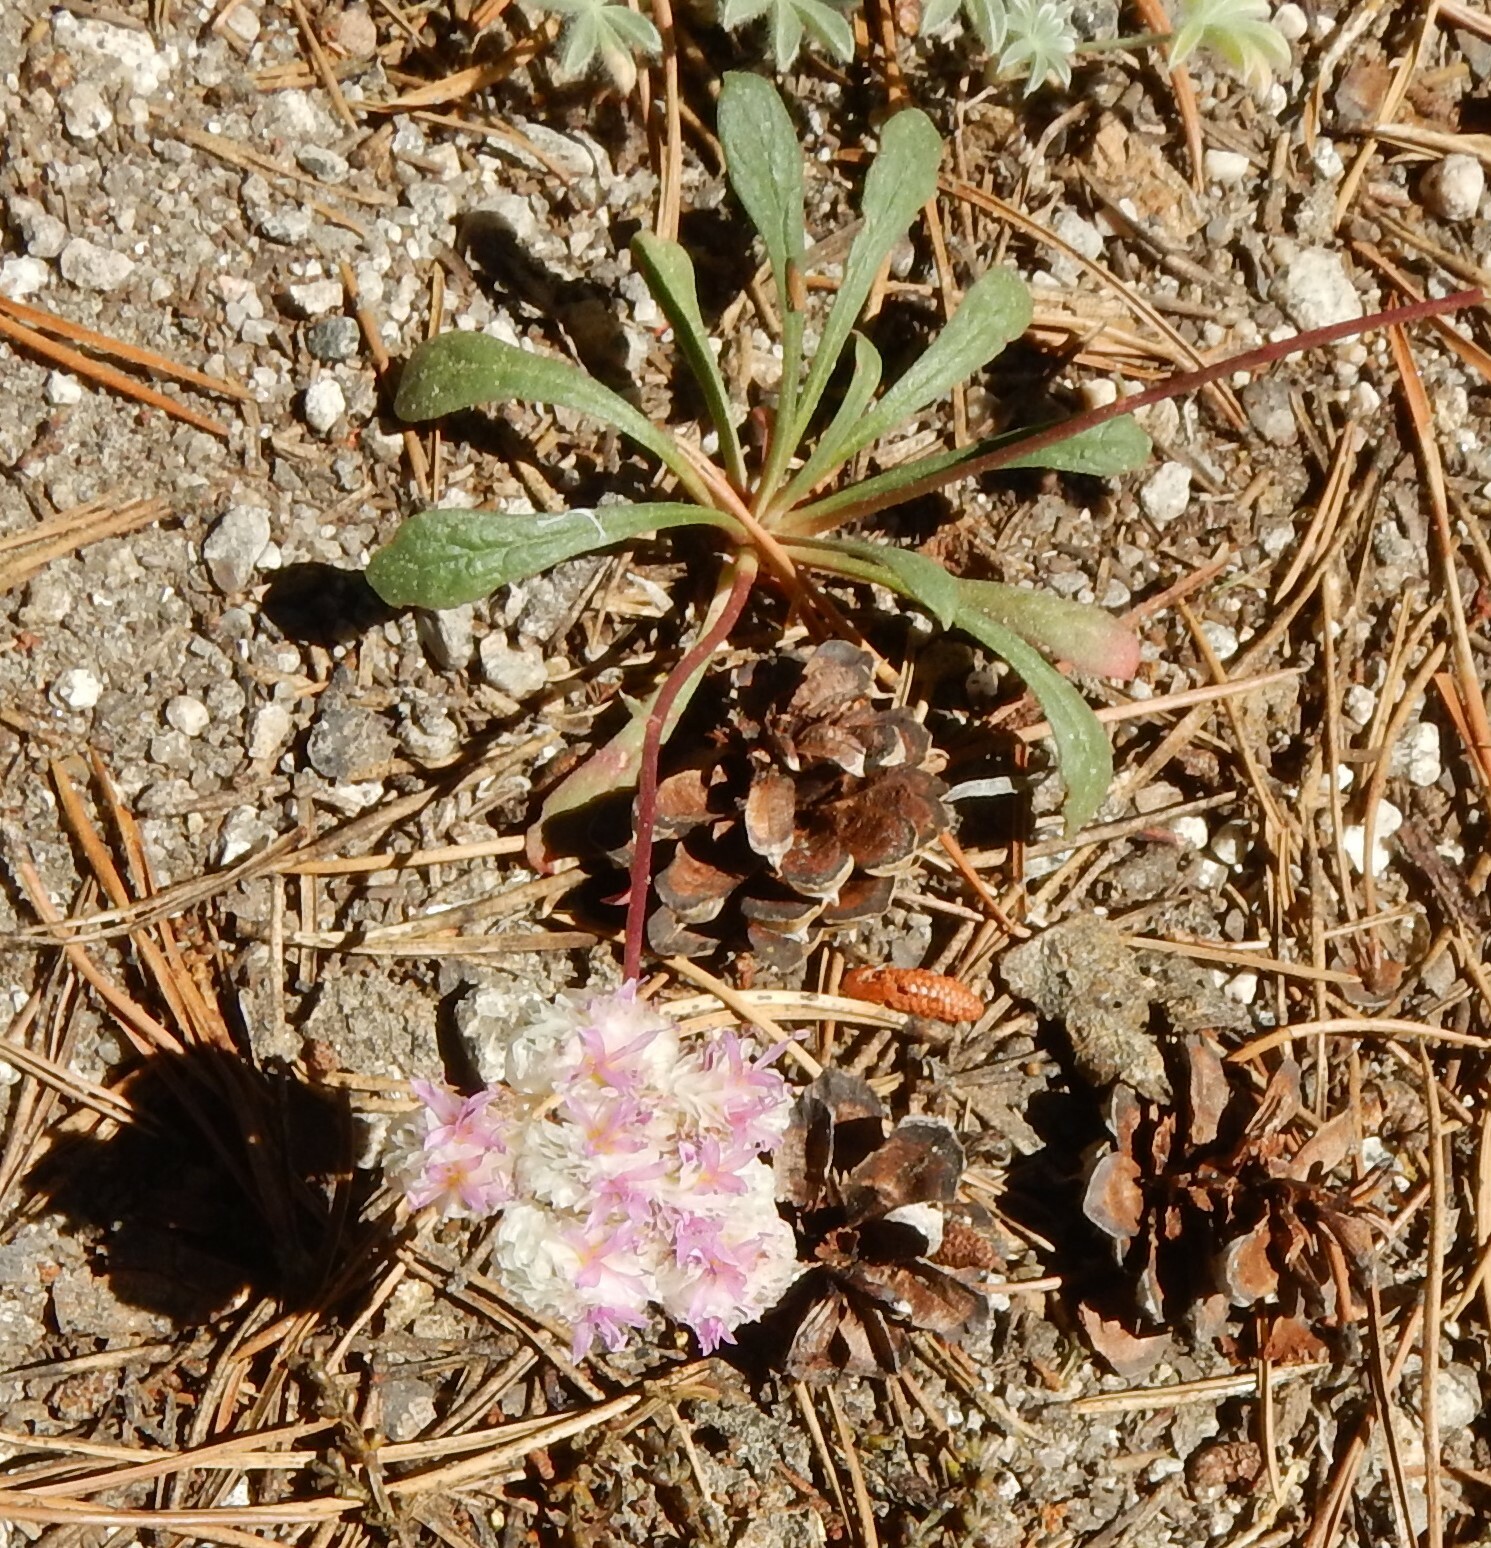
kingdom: Plantae
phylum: Tracheophyta
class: Magnoliopsida
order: Caryophyllales
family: Montiaceae
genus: Calyptridium
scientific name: Calyptridium monospermum
